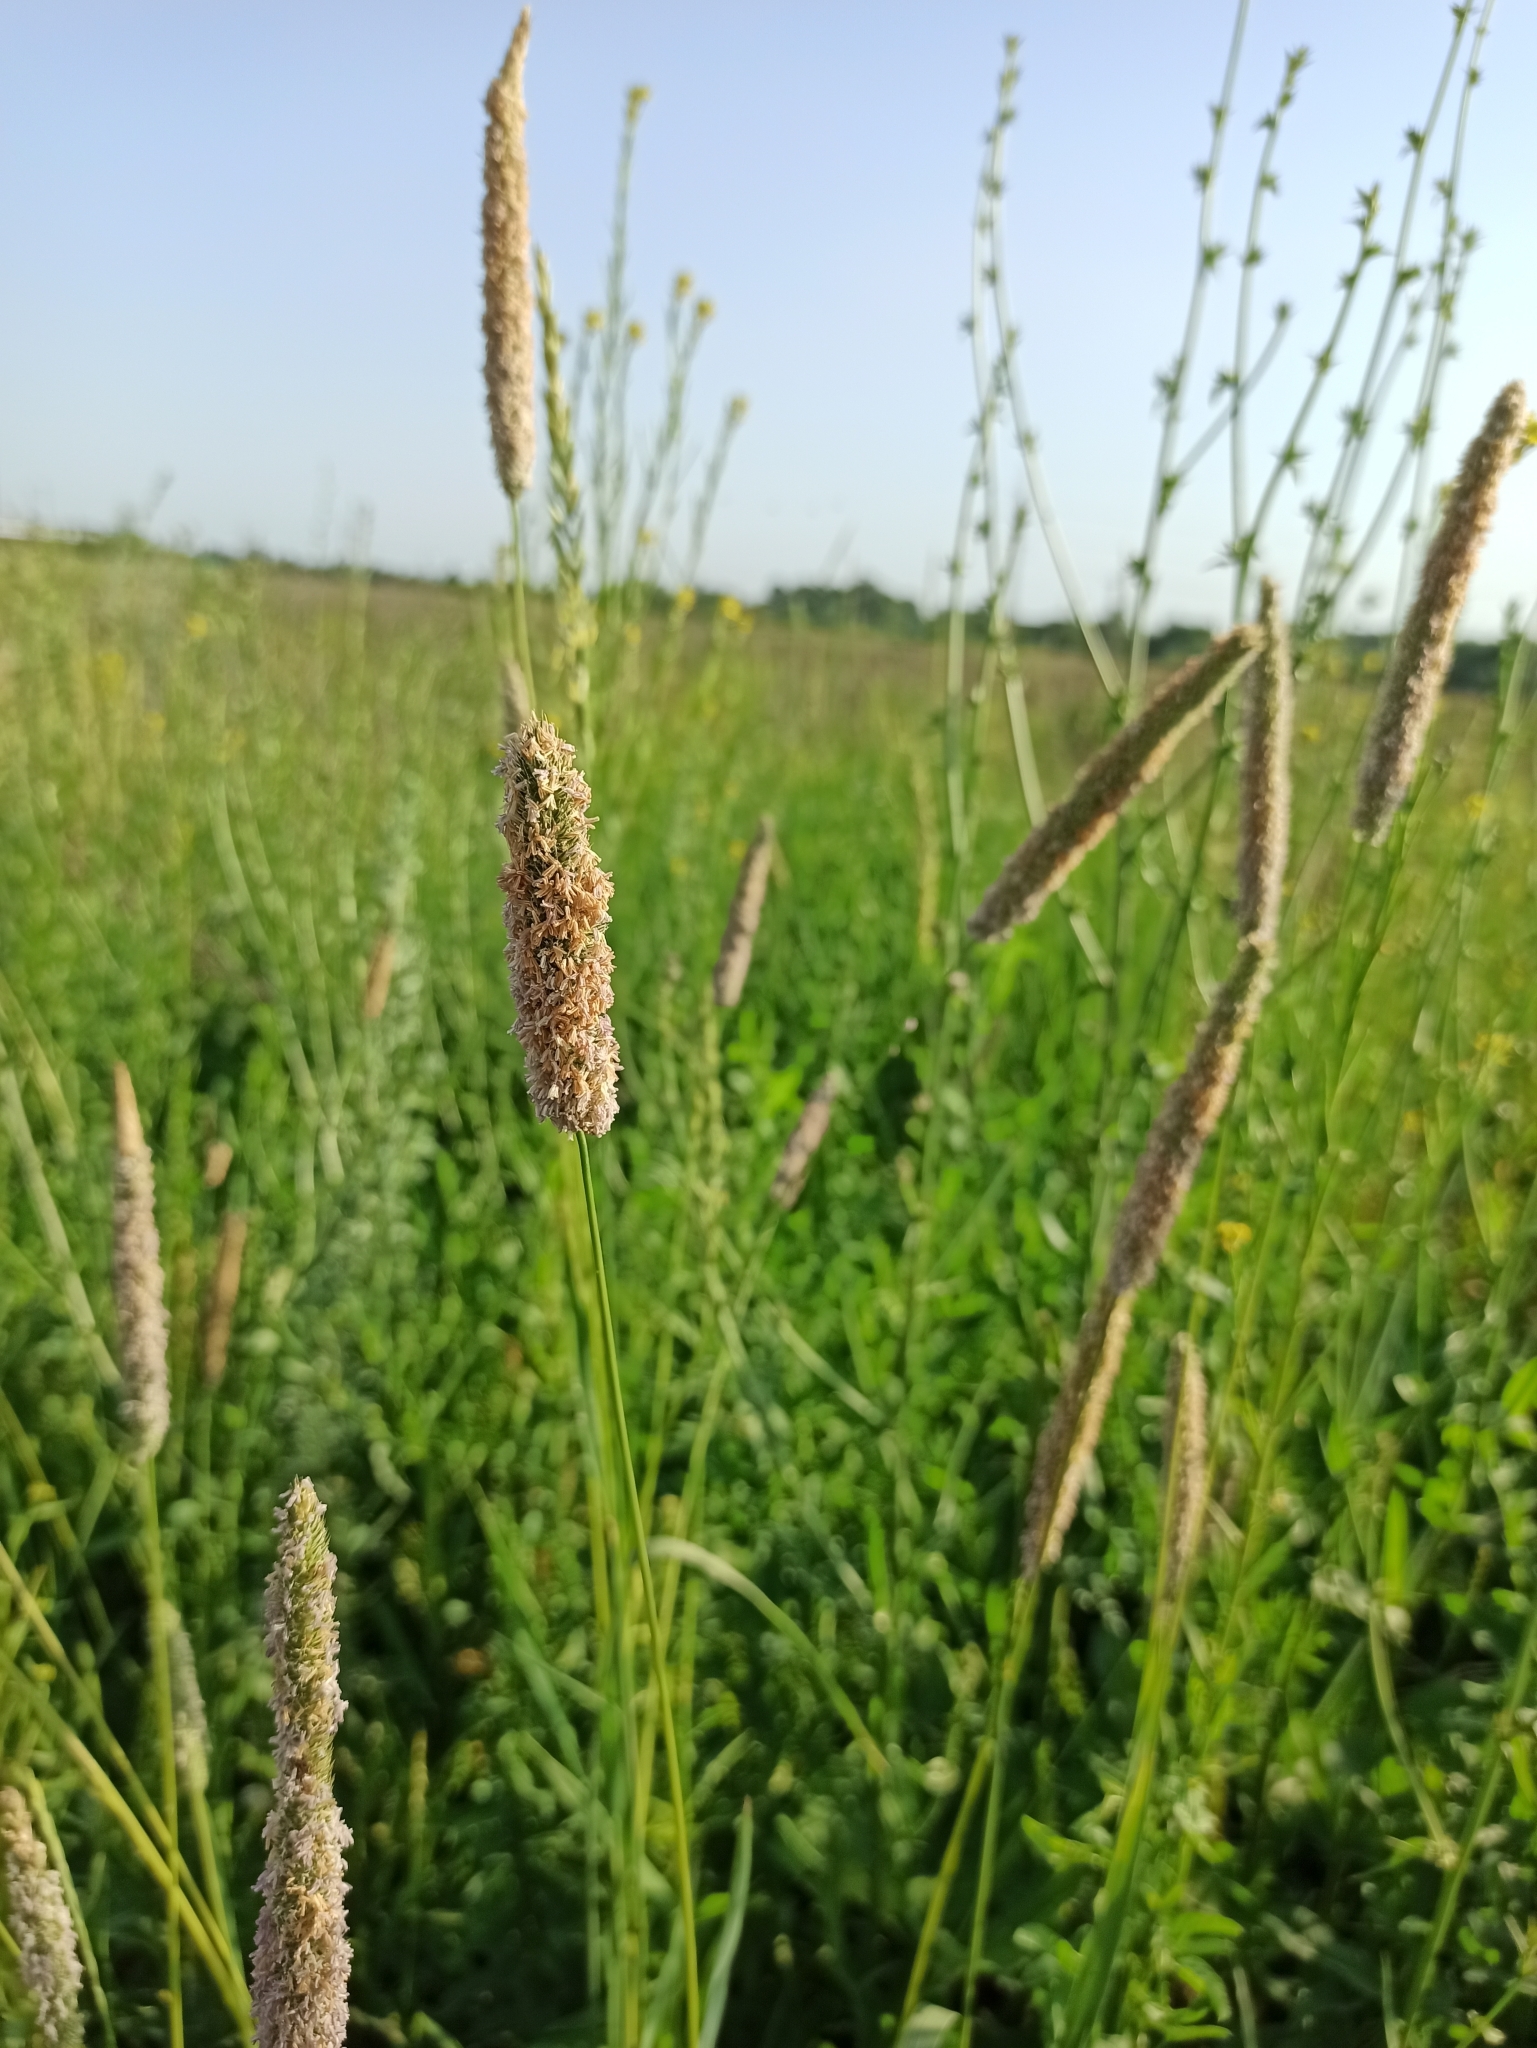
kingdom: Plantae
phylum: Tracheophyta
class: Liliopsida
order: Poales
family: Poaceae
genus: Phleum
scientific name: Phleum pratense
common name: Timothy grass
